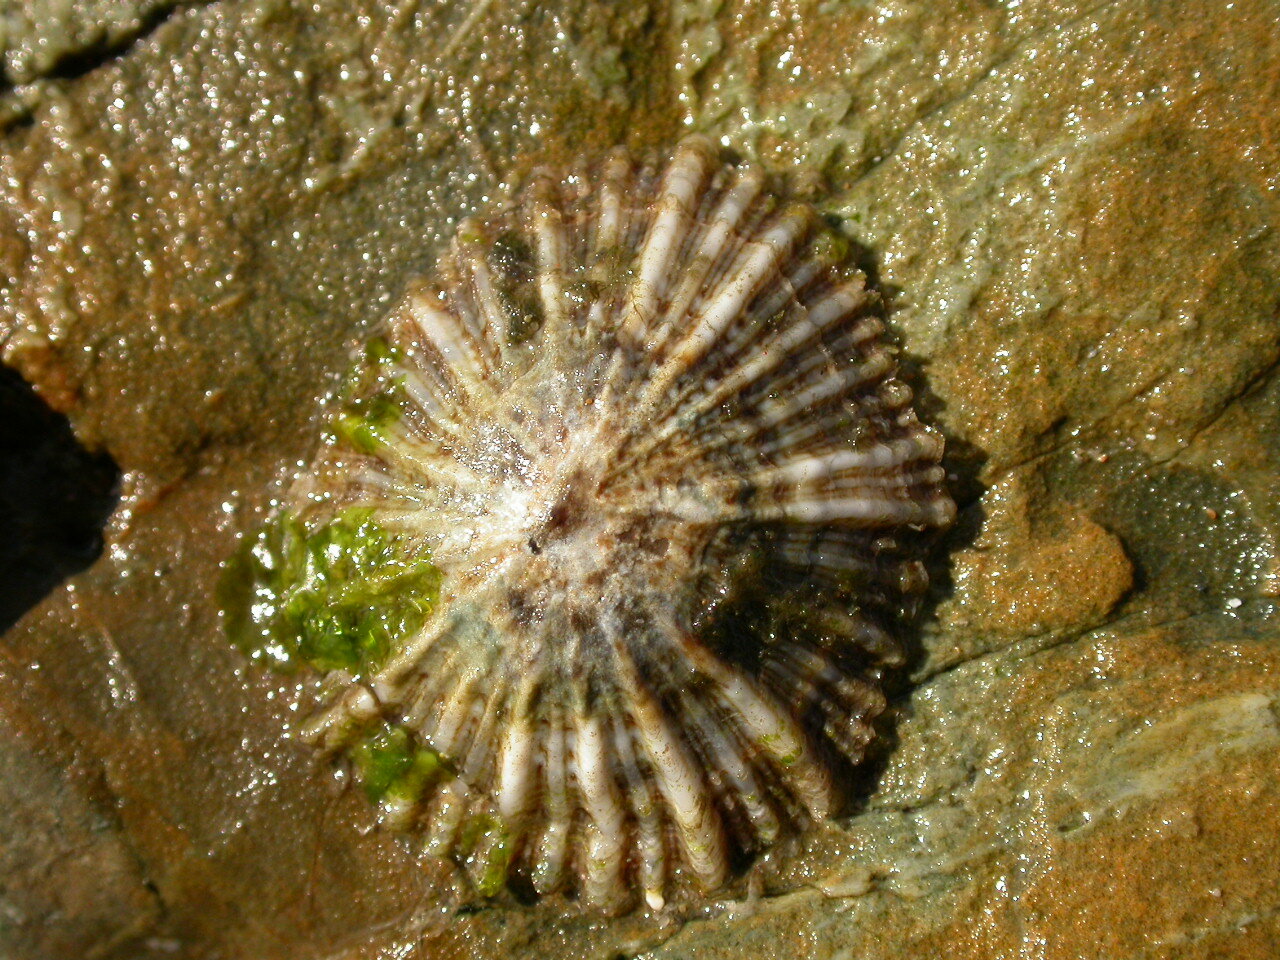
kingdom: Animalia
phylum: Mollusca
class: Gastropoda
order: Siphonariida
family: Siphonariidae
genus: Siphonaria
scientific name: Siphonaria denticulata
